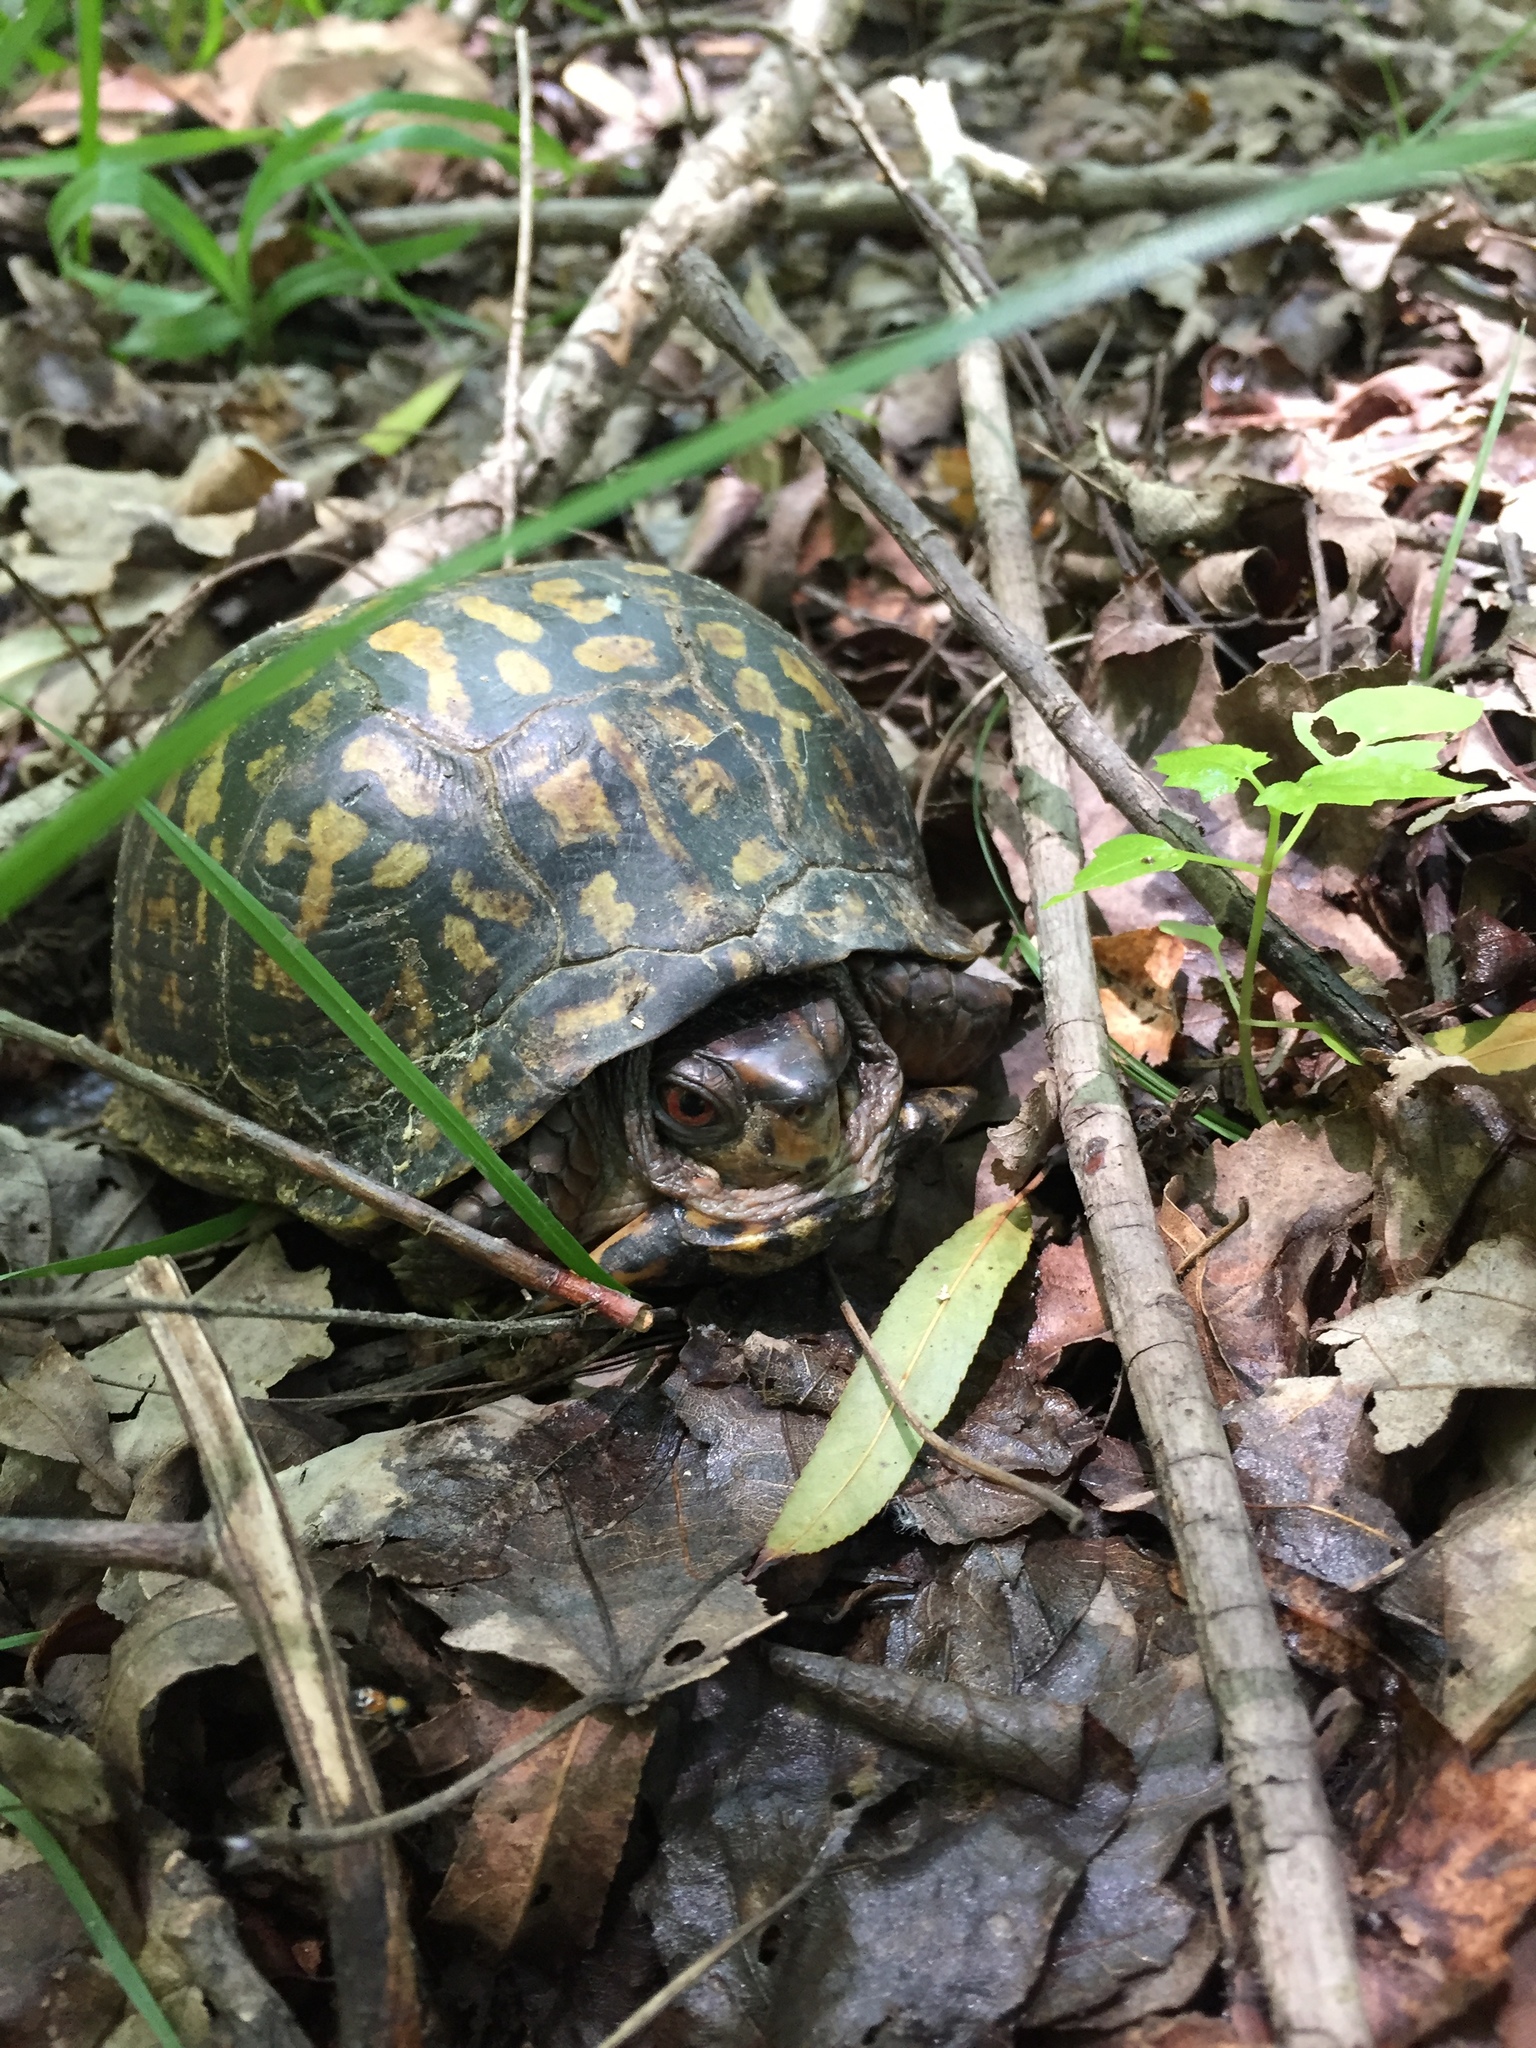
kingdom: Animalia
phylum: Chordata
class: Testudines
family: Emydidae
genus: Terrapene
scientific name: Terrapene carolina
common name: Common box turtle
